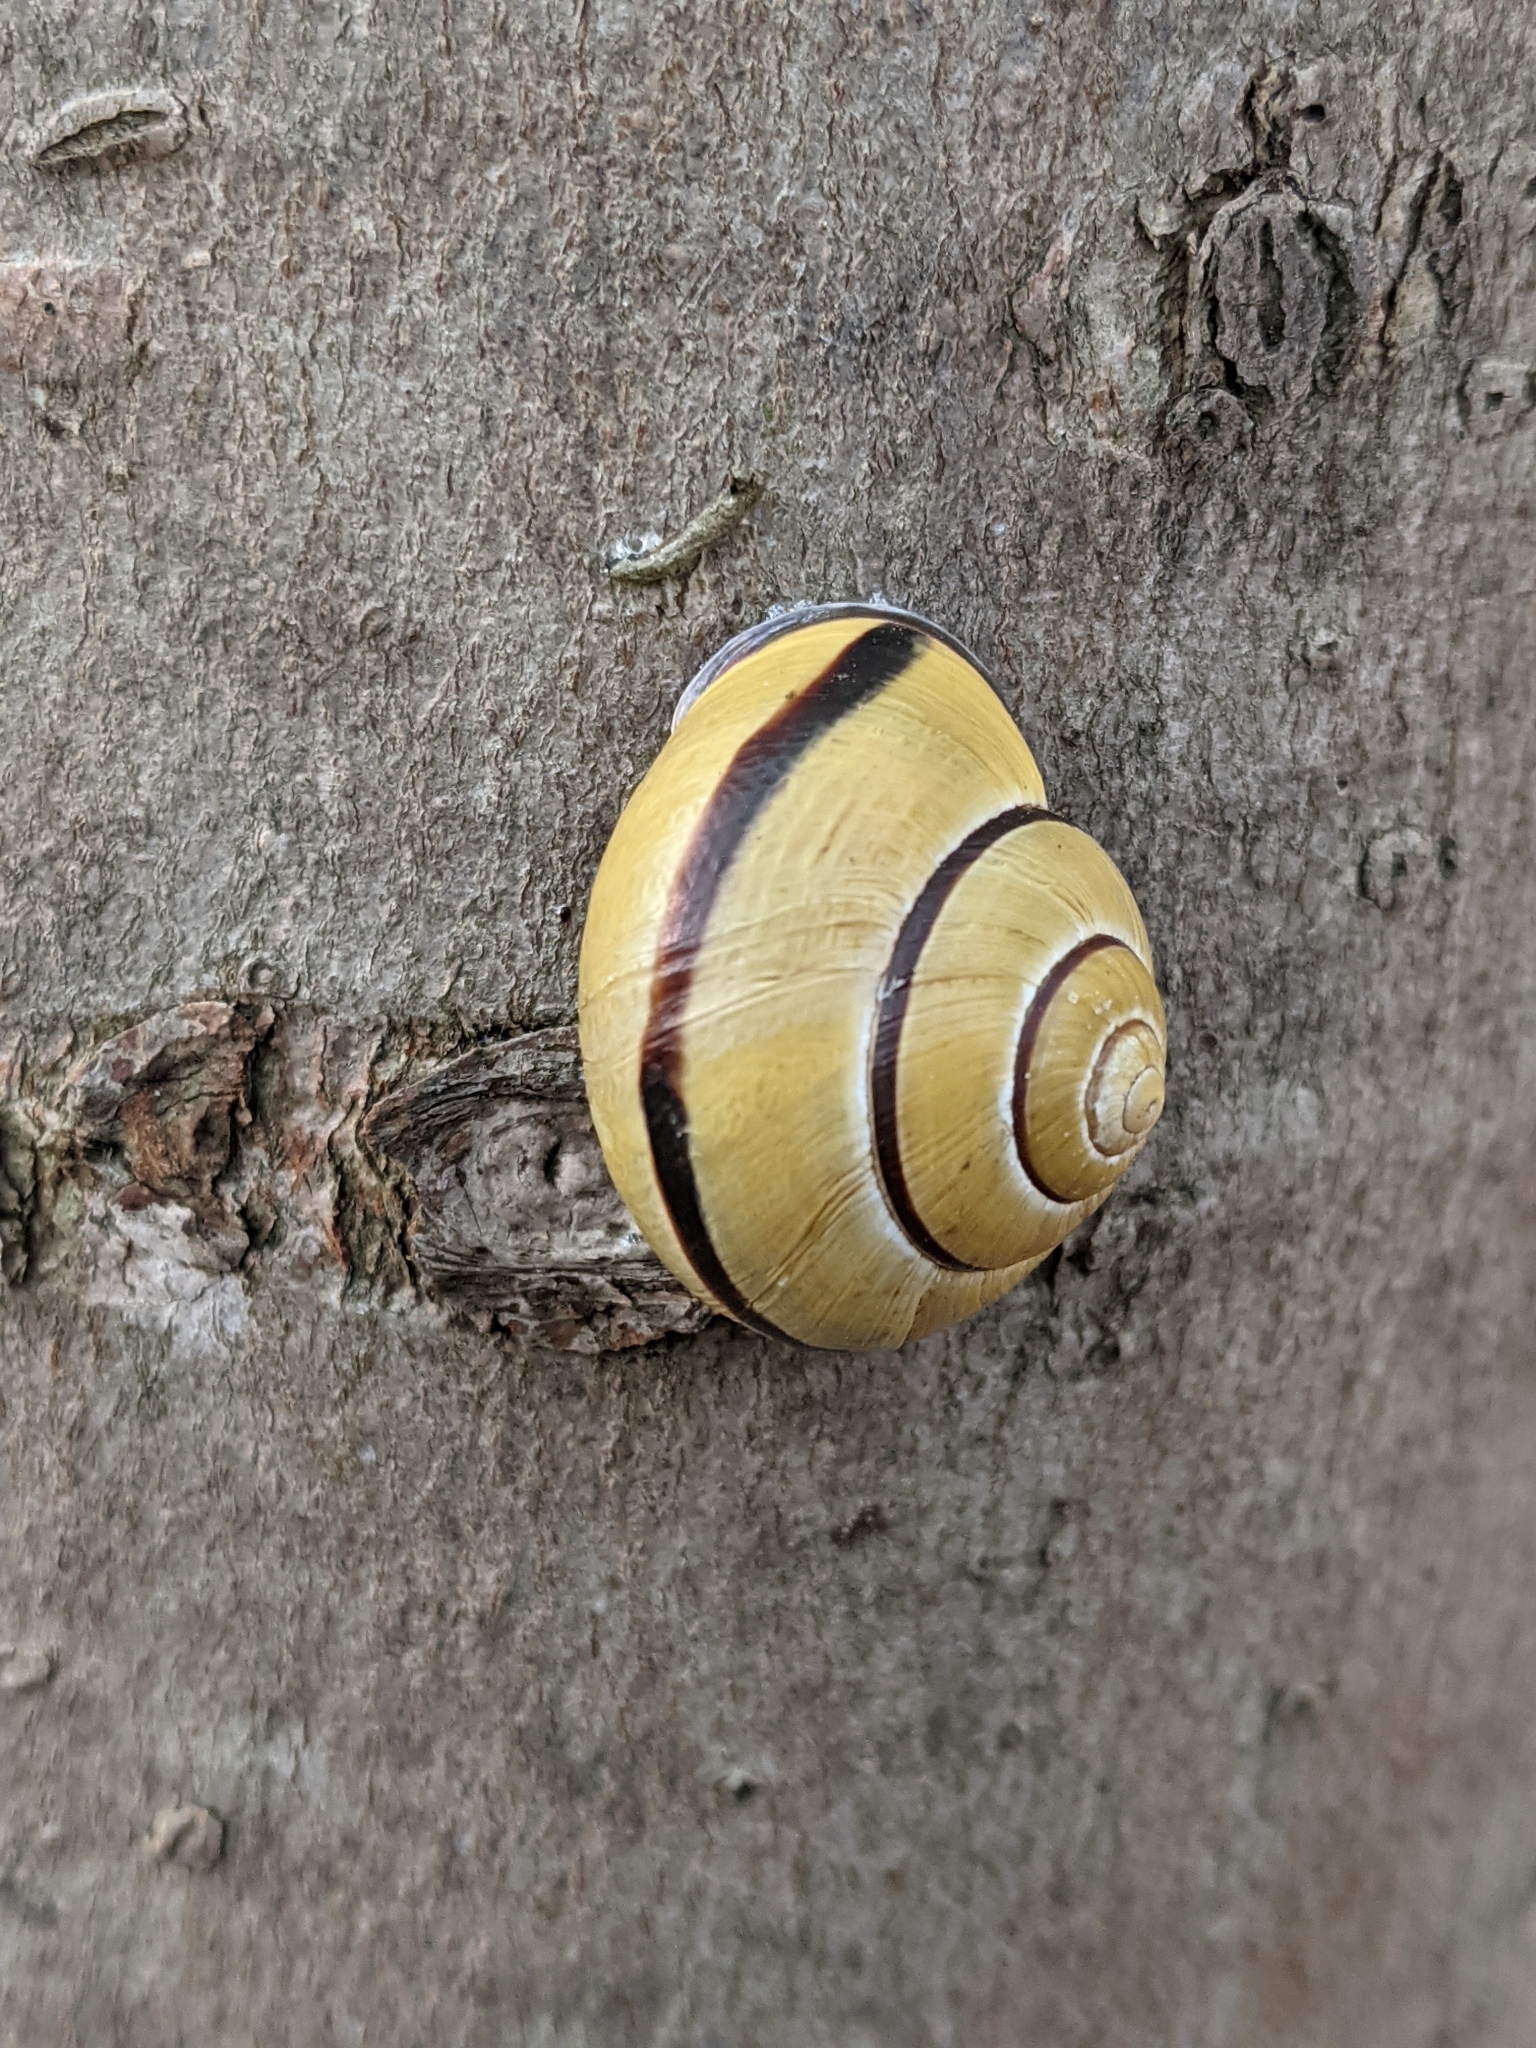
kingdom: Animalia
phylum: Mollusca
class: Gastropoda
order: Stylommatophora
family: Helicidae
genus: Cepaea
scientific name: Cepaea nemoralis
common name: Grovesnail
